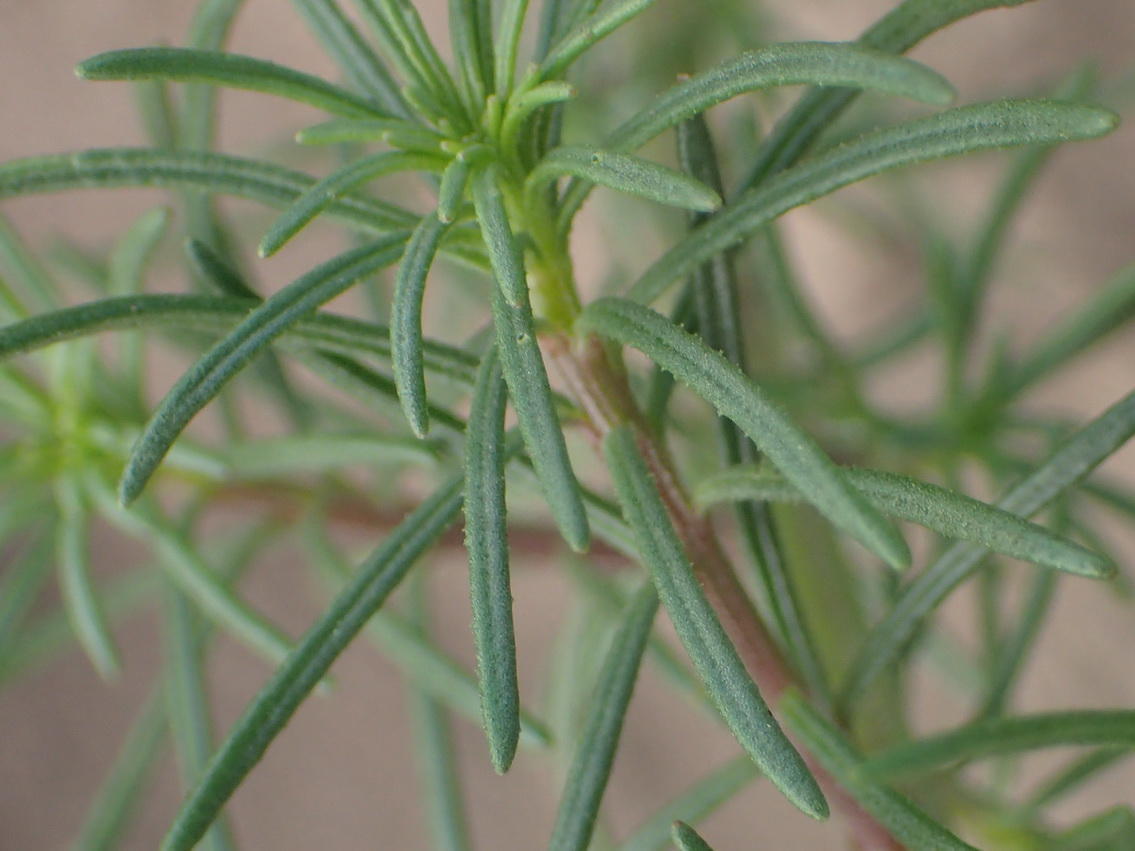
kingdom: Plantae
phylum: Tracheophyta
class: Magnoliopsida
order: Lamiales
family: Scrophulariaceae
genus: Hebenstretia
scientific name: Hebenstretia integrifolia
